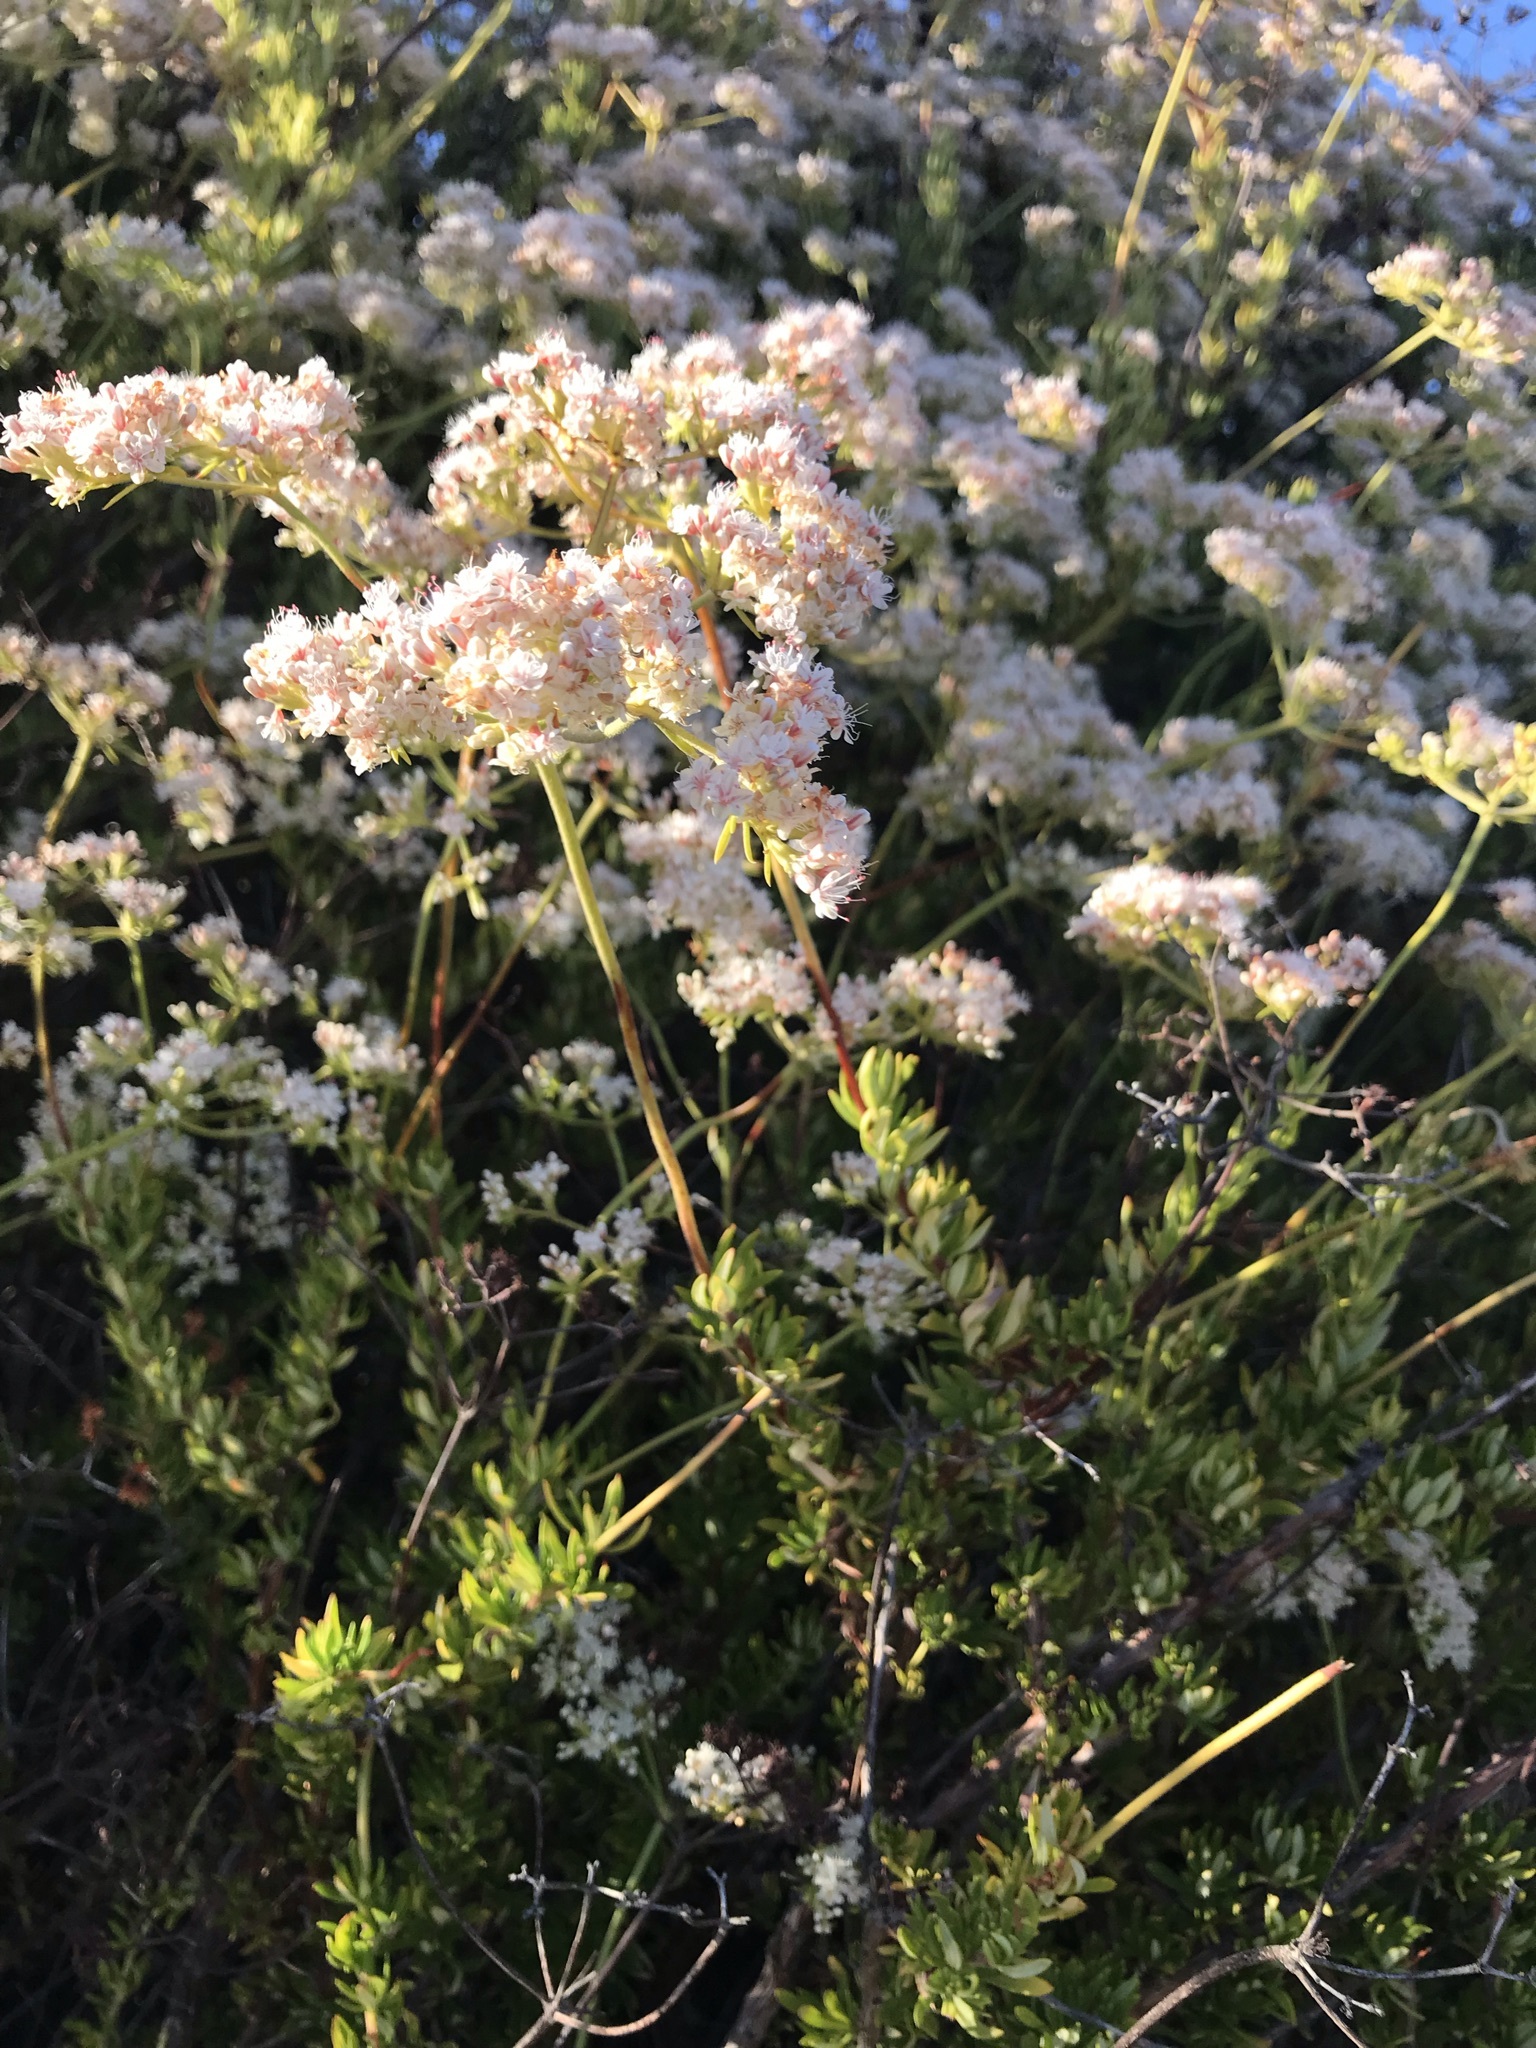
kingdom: Plantae
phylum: Tracheophyta
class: Magnoliopsida
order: Caryophyllales
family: Polygonaceae
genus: Eriogonum
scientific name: Eriogonum fasciculatum
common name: California wild buckwheat
